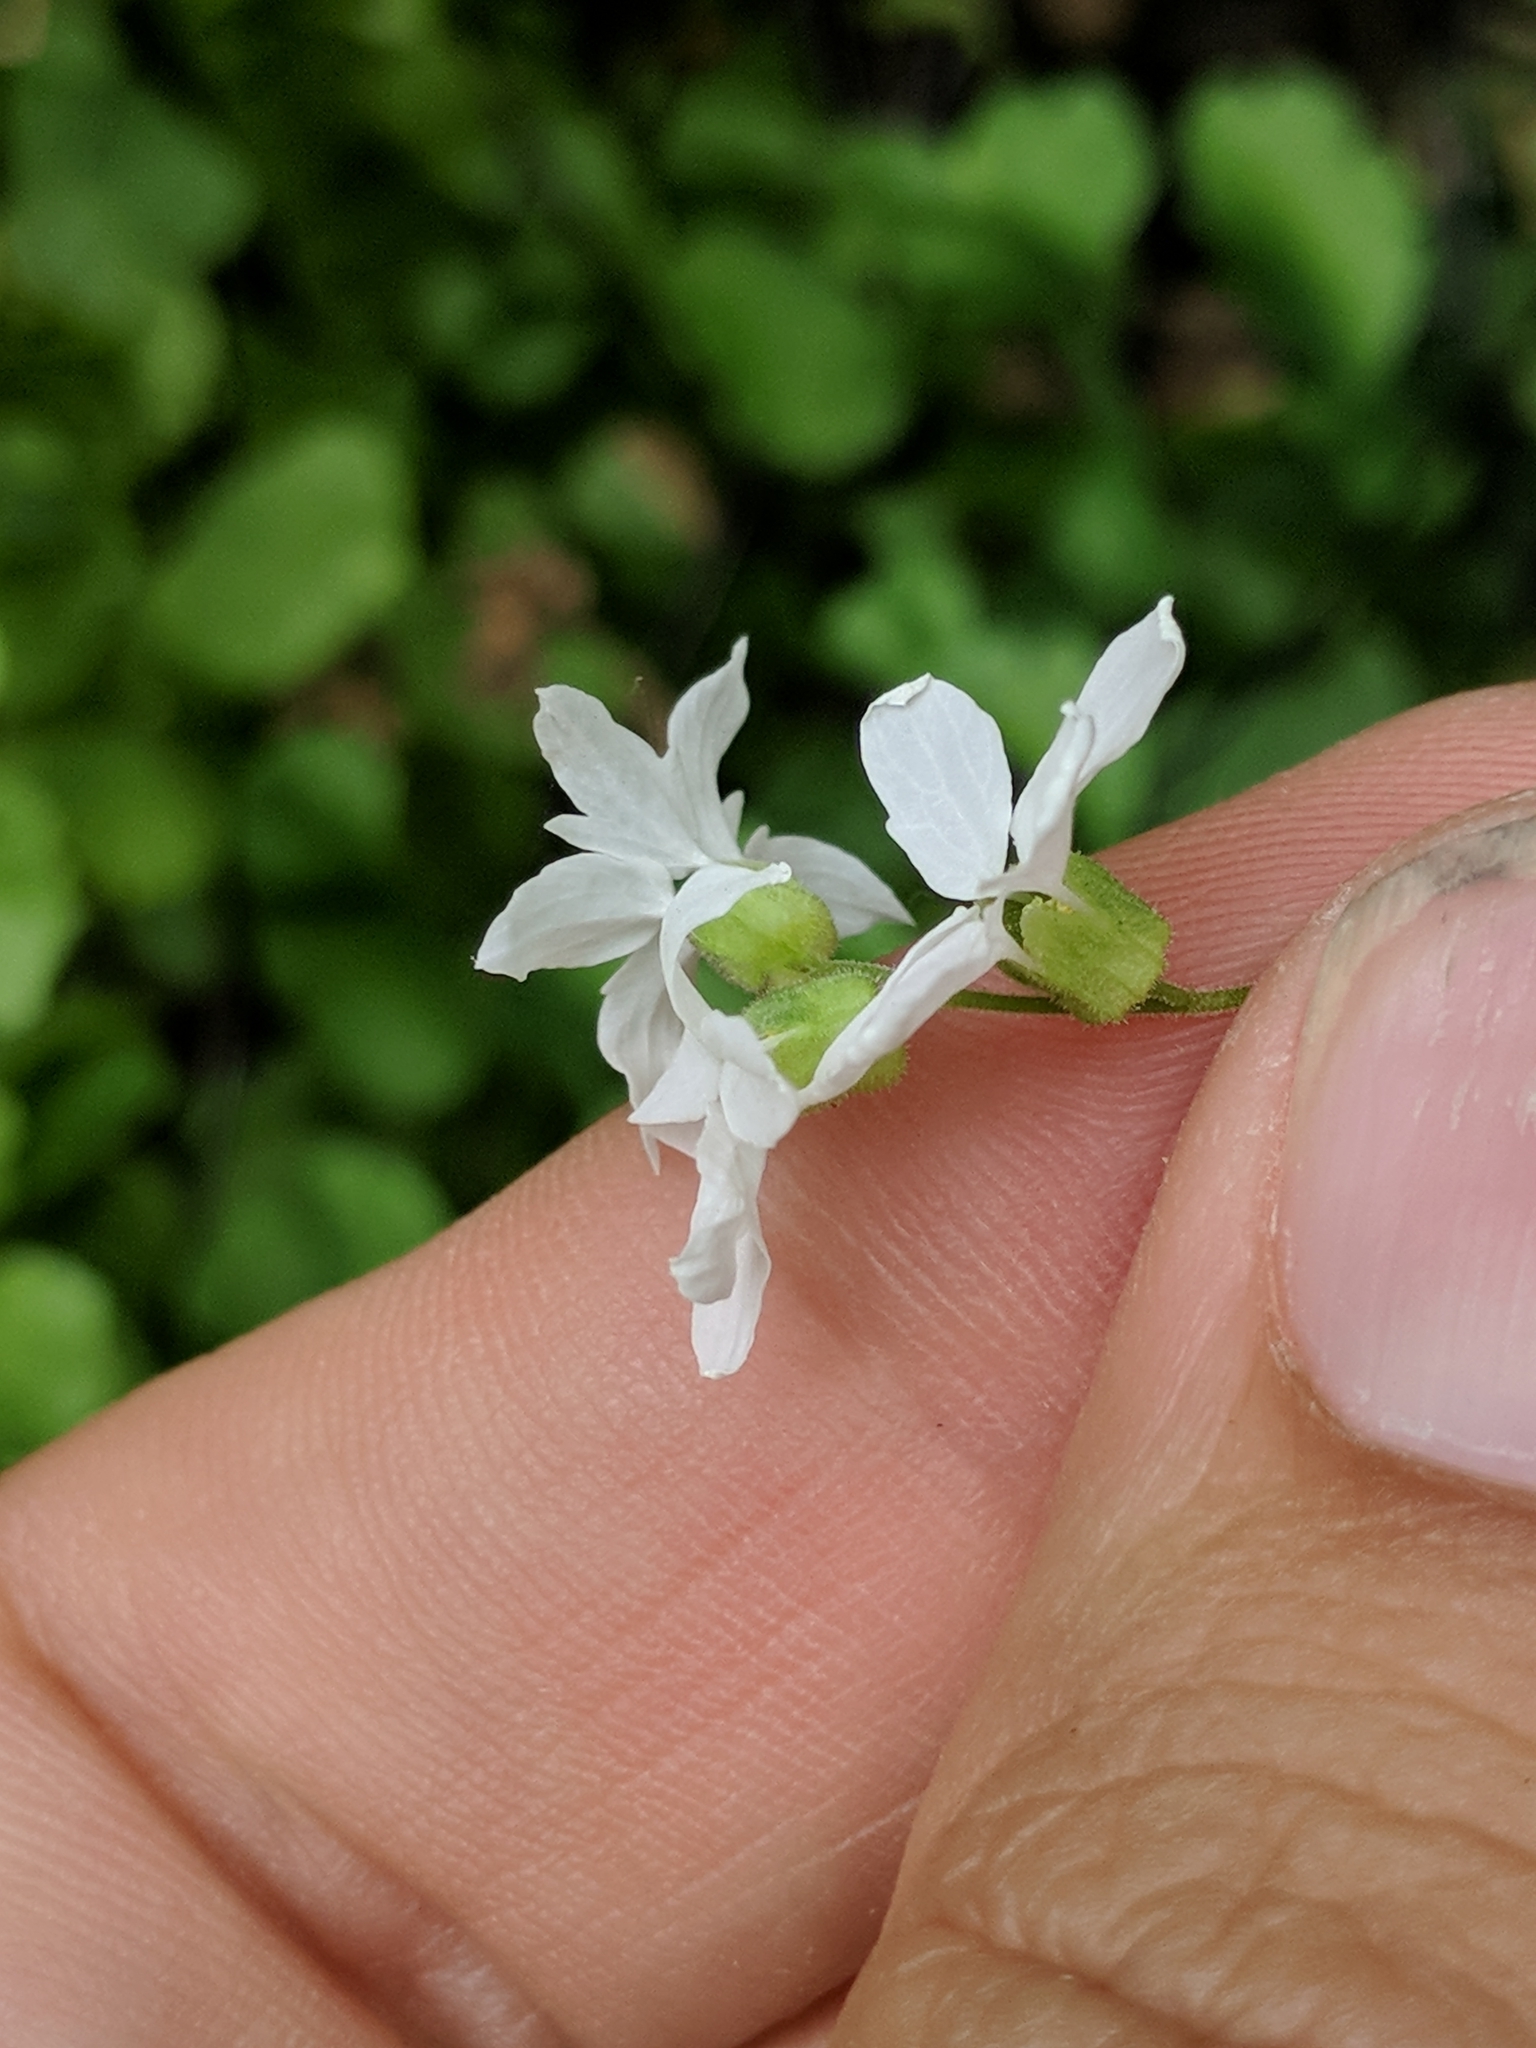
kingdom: Plantae
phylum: Tracheophyta
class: Magnoliopsida
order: Saxifragales
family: Saxifragaceae
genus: Lithophragma
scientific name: Lithophragma heterophyllum
